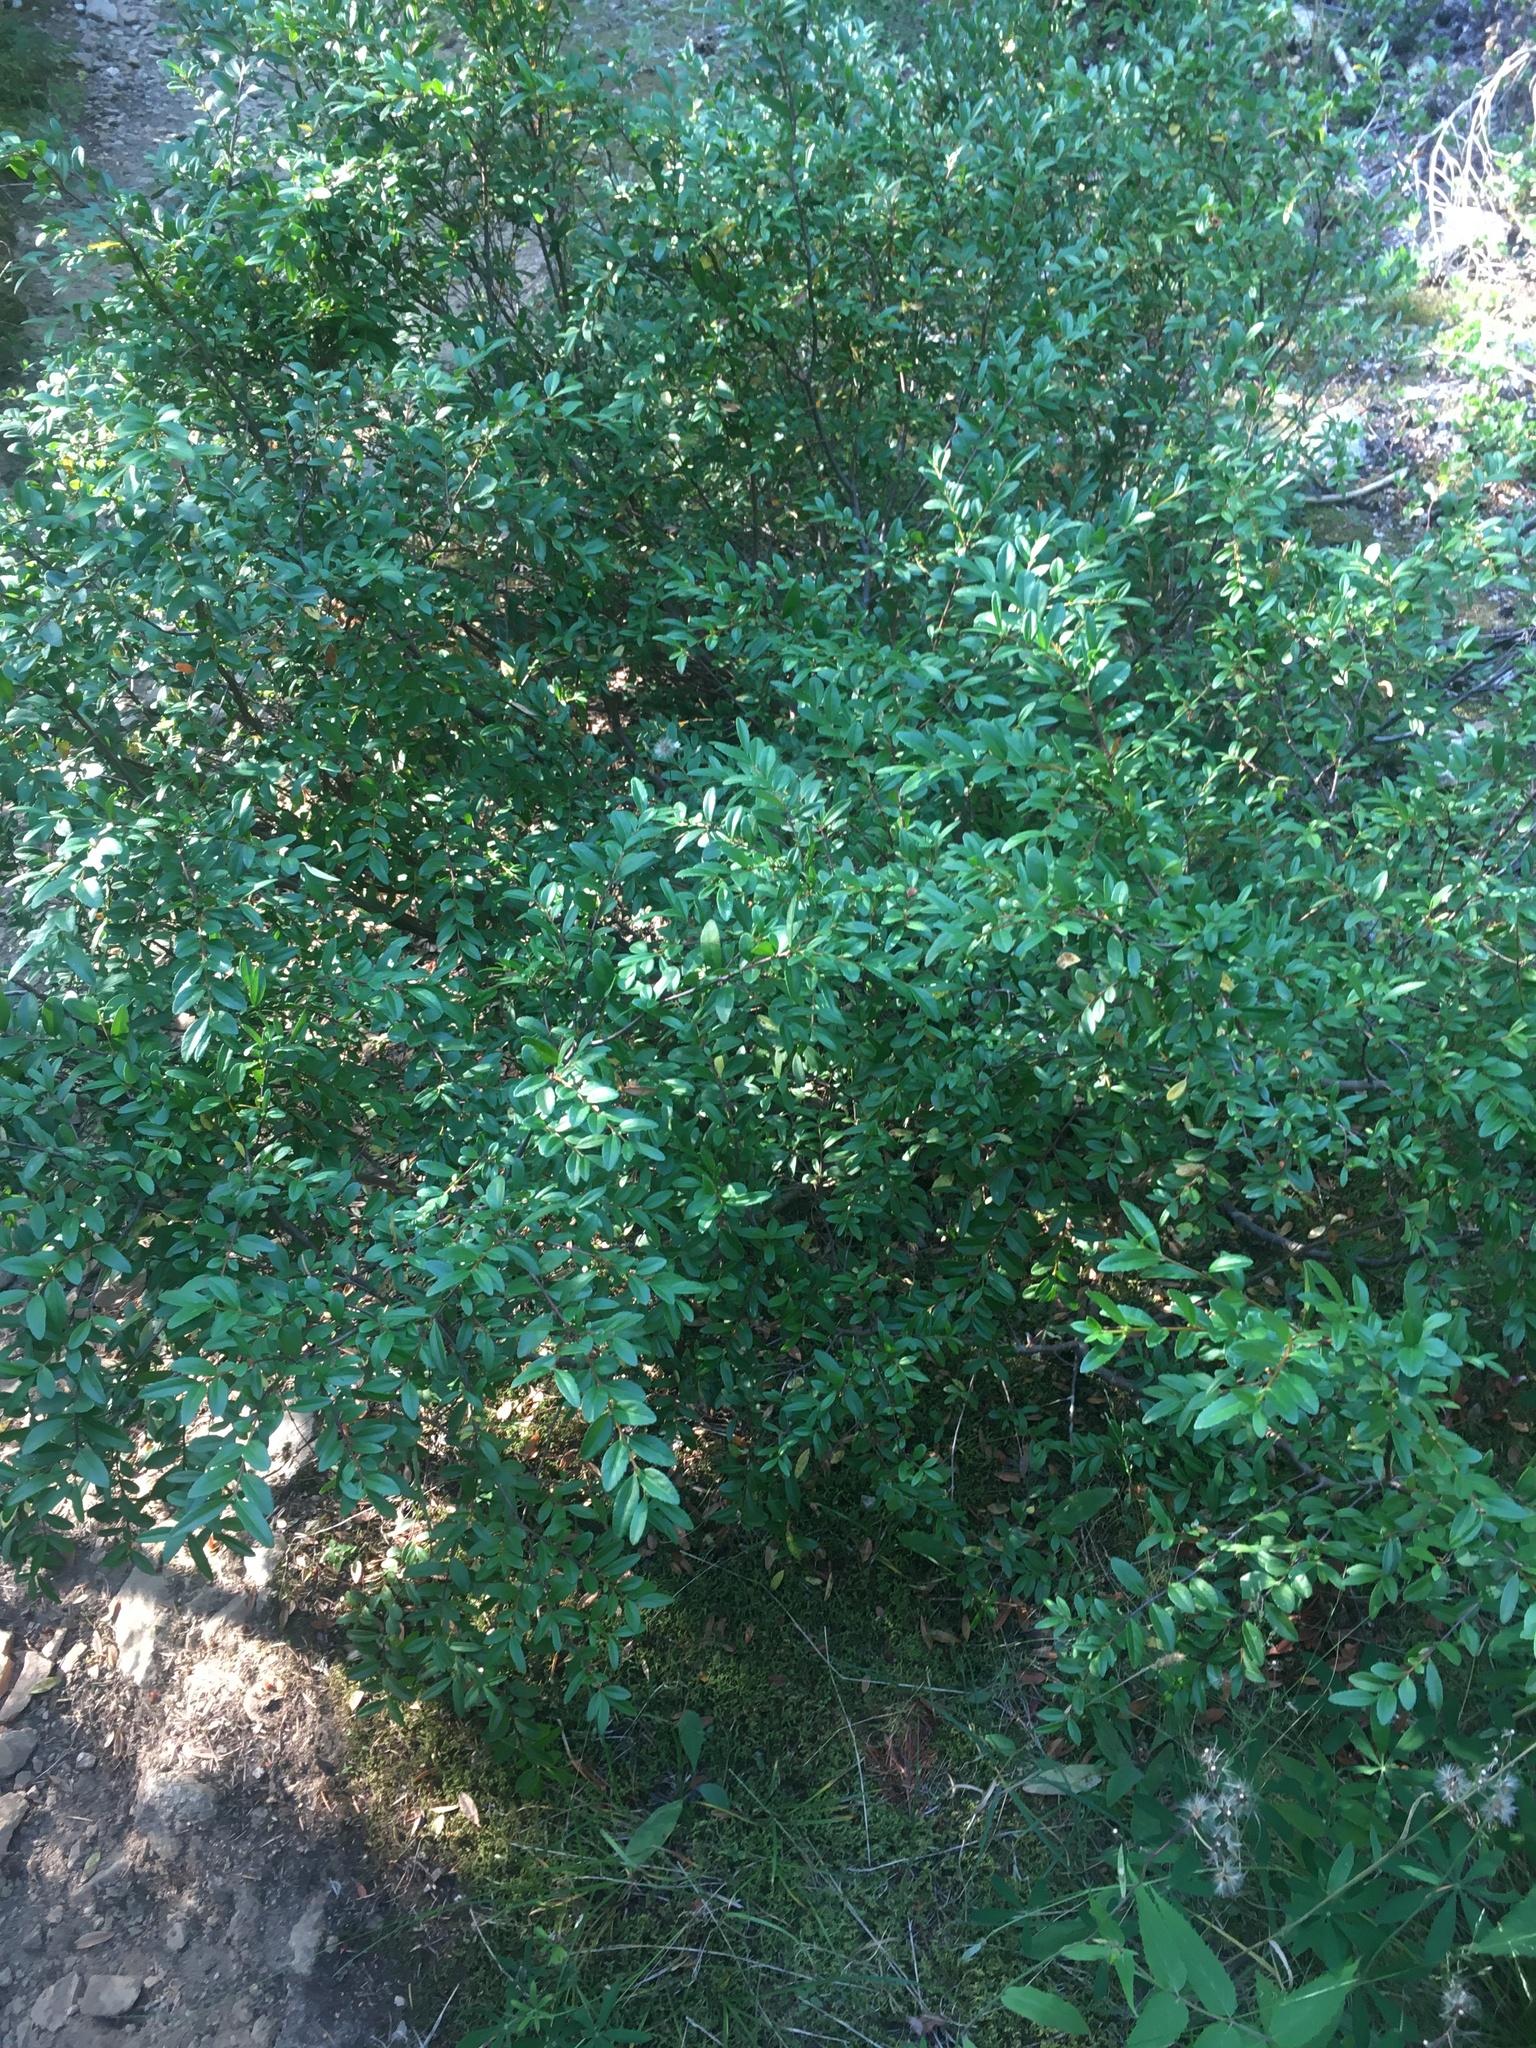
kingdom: Plantae
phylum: Tracheophyta
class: Magnoliopsida
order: Celastrales
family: Celastraceae
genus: Paxistima
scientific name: Paxistima myrsinites
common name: Mountain-lover
